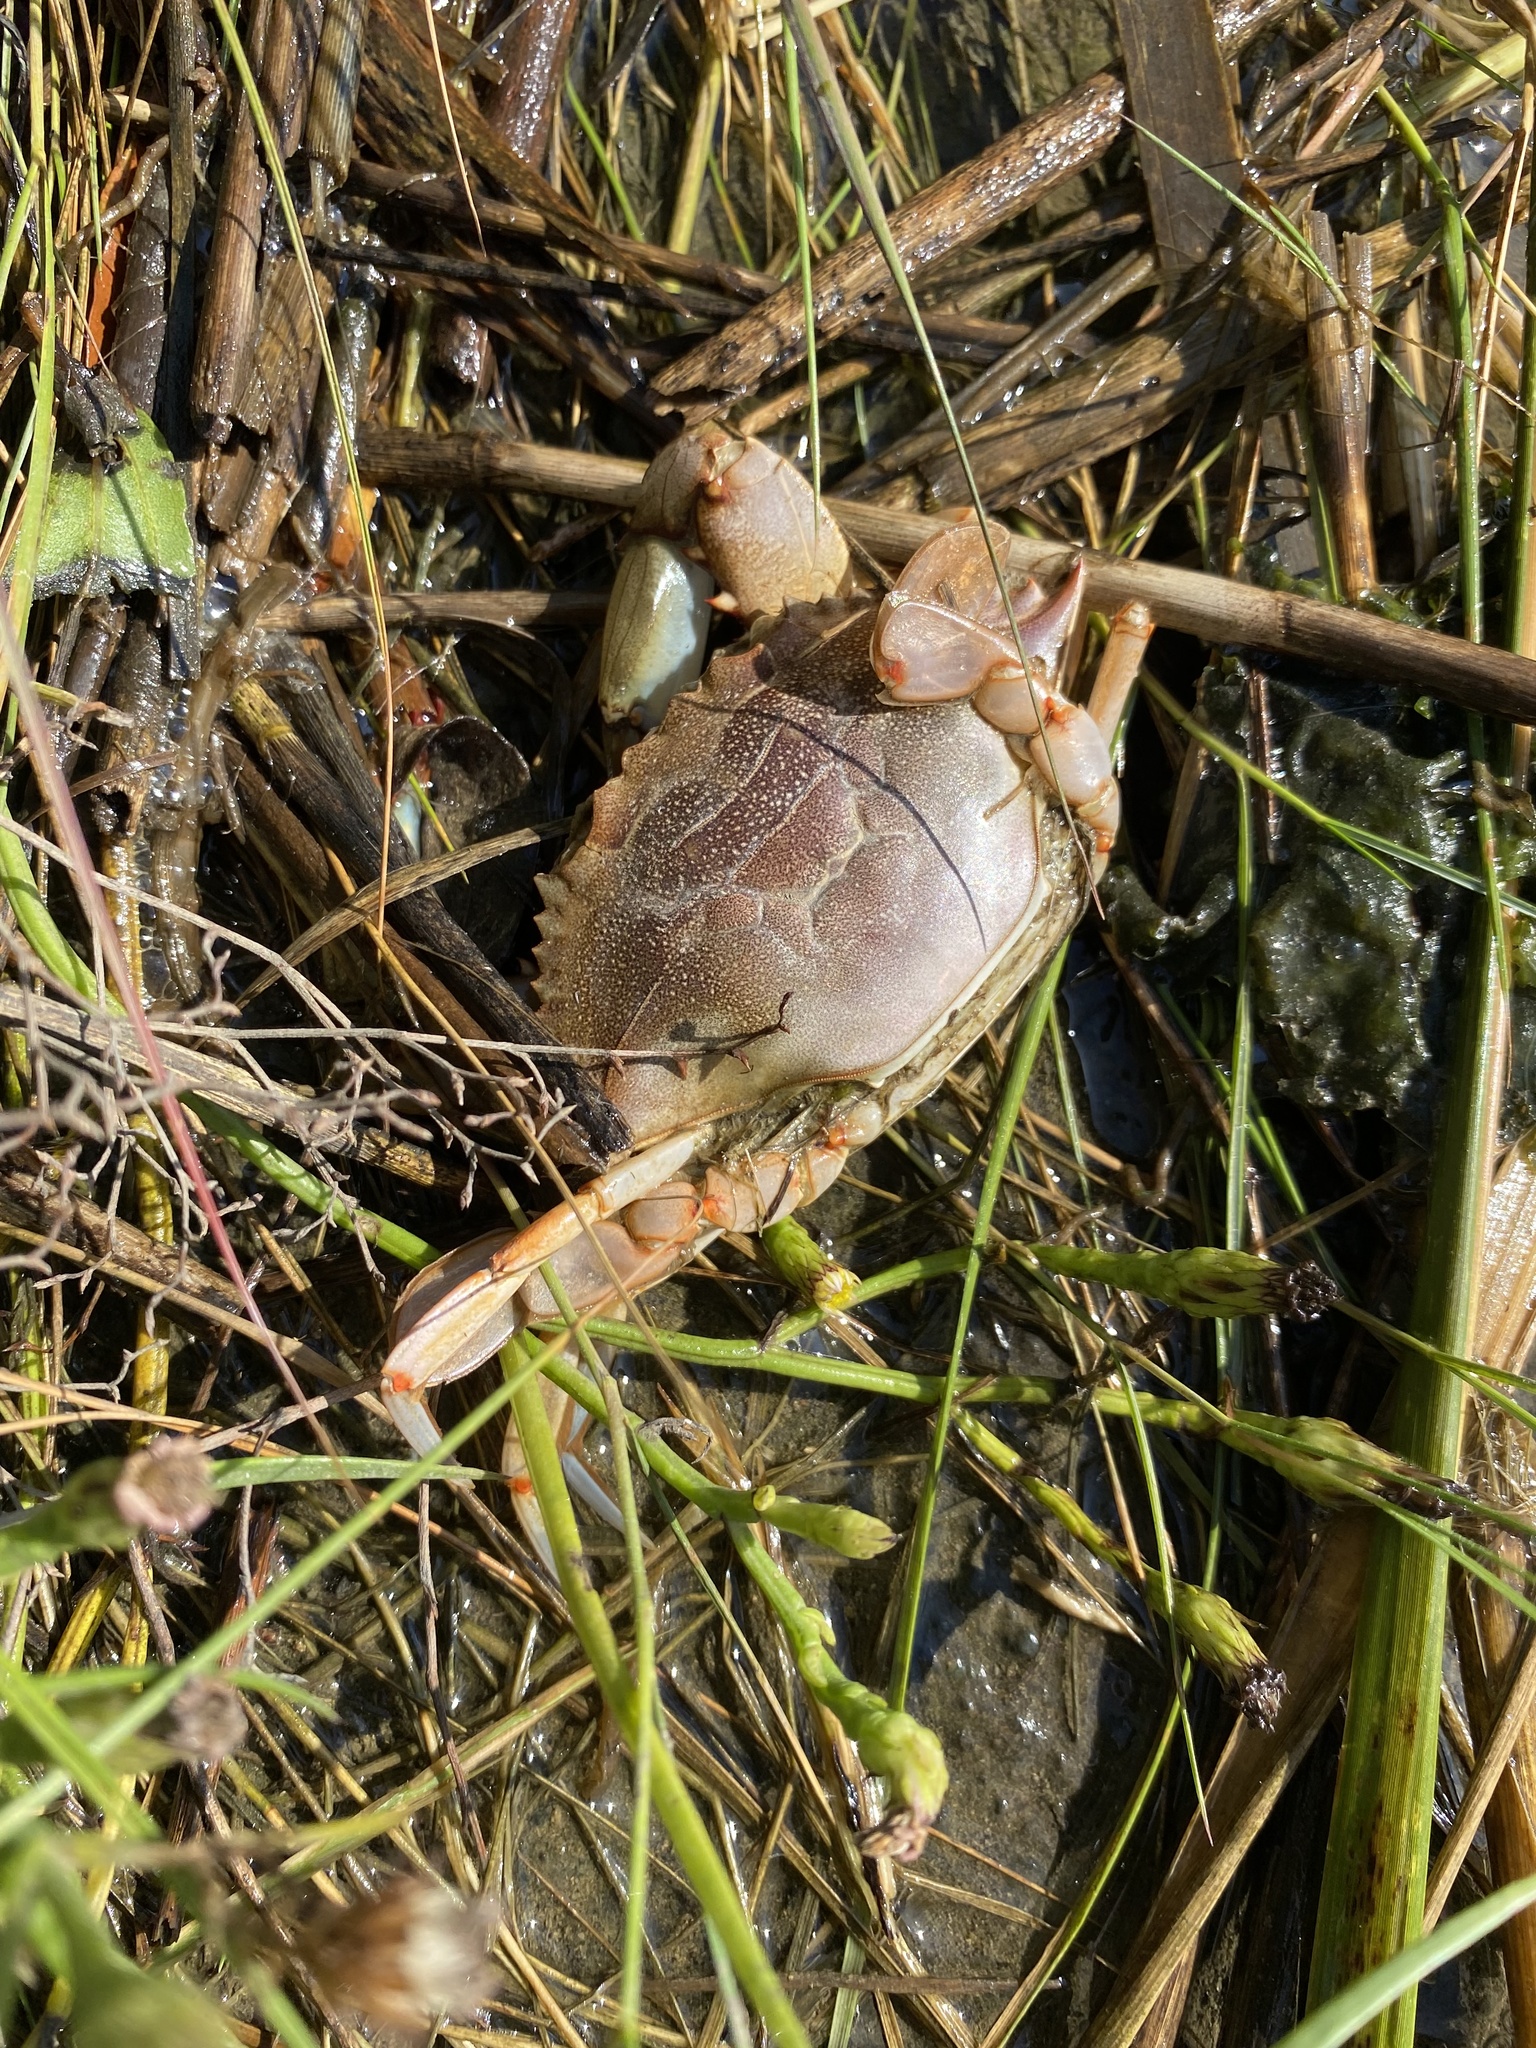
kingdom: Animalia
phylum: Arthropoda
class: Malacostraca
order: Decapoda
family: Portunidae
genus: Callinectes
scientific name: Callinectes sapidus
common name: Blue crab
